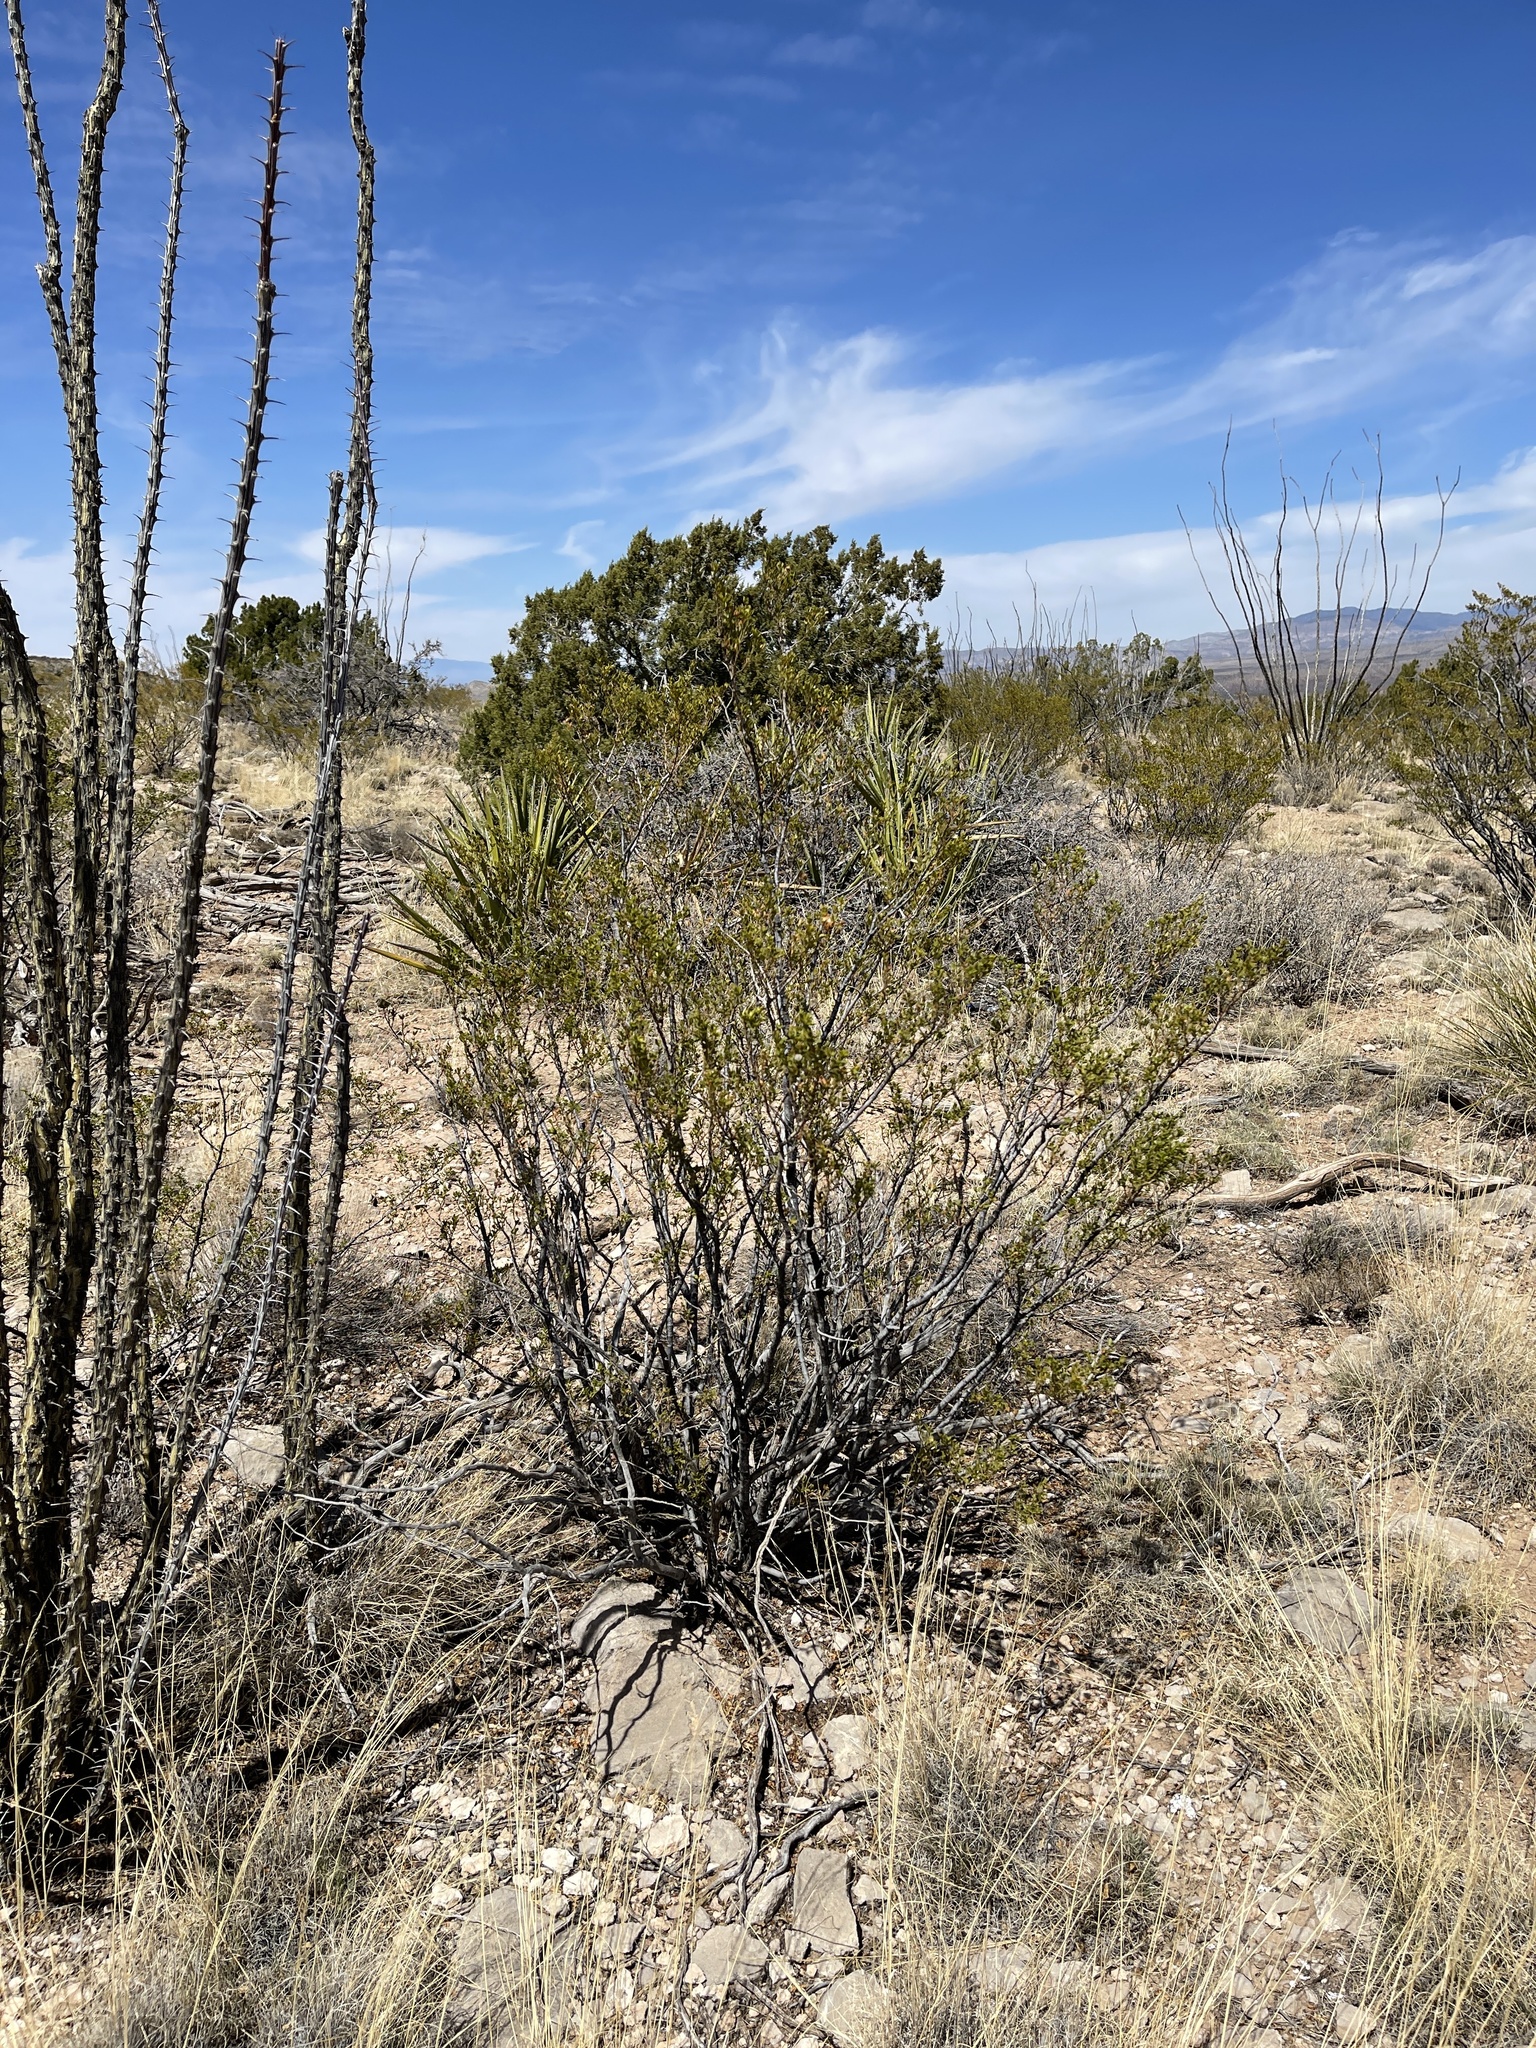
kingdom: Plantae
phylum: Tracheophyta
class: Magnoliopsida
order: Zygophyllales
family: Zygophyllaceae
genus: Larrea
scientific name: Larrea tridentata
